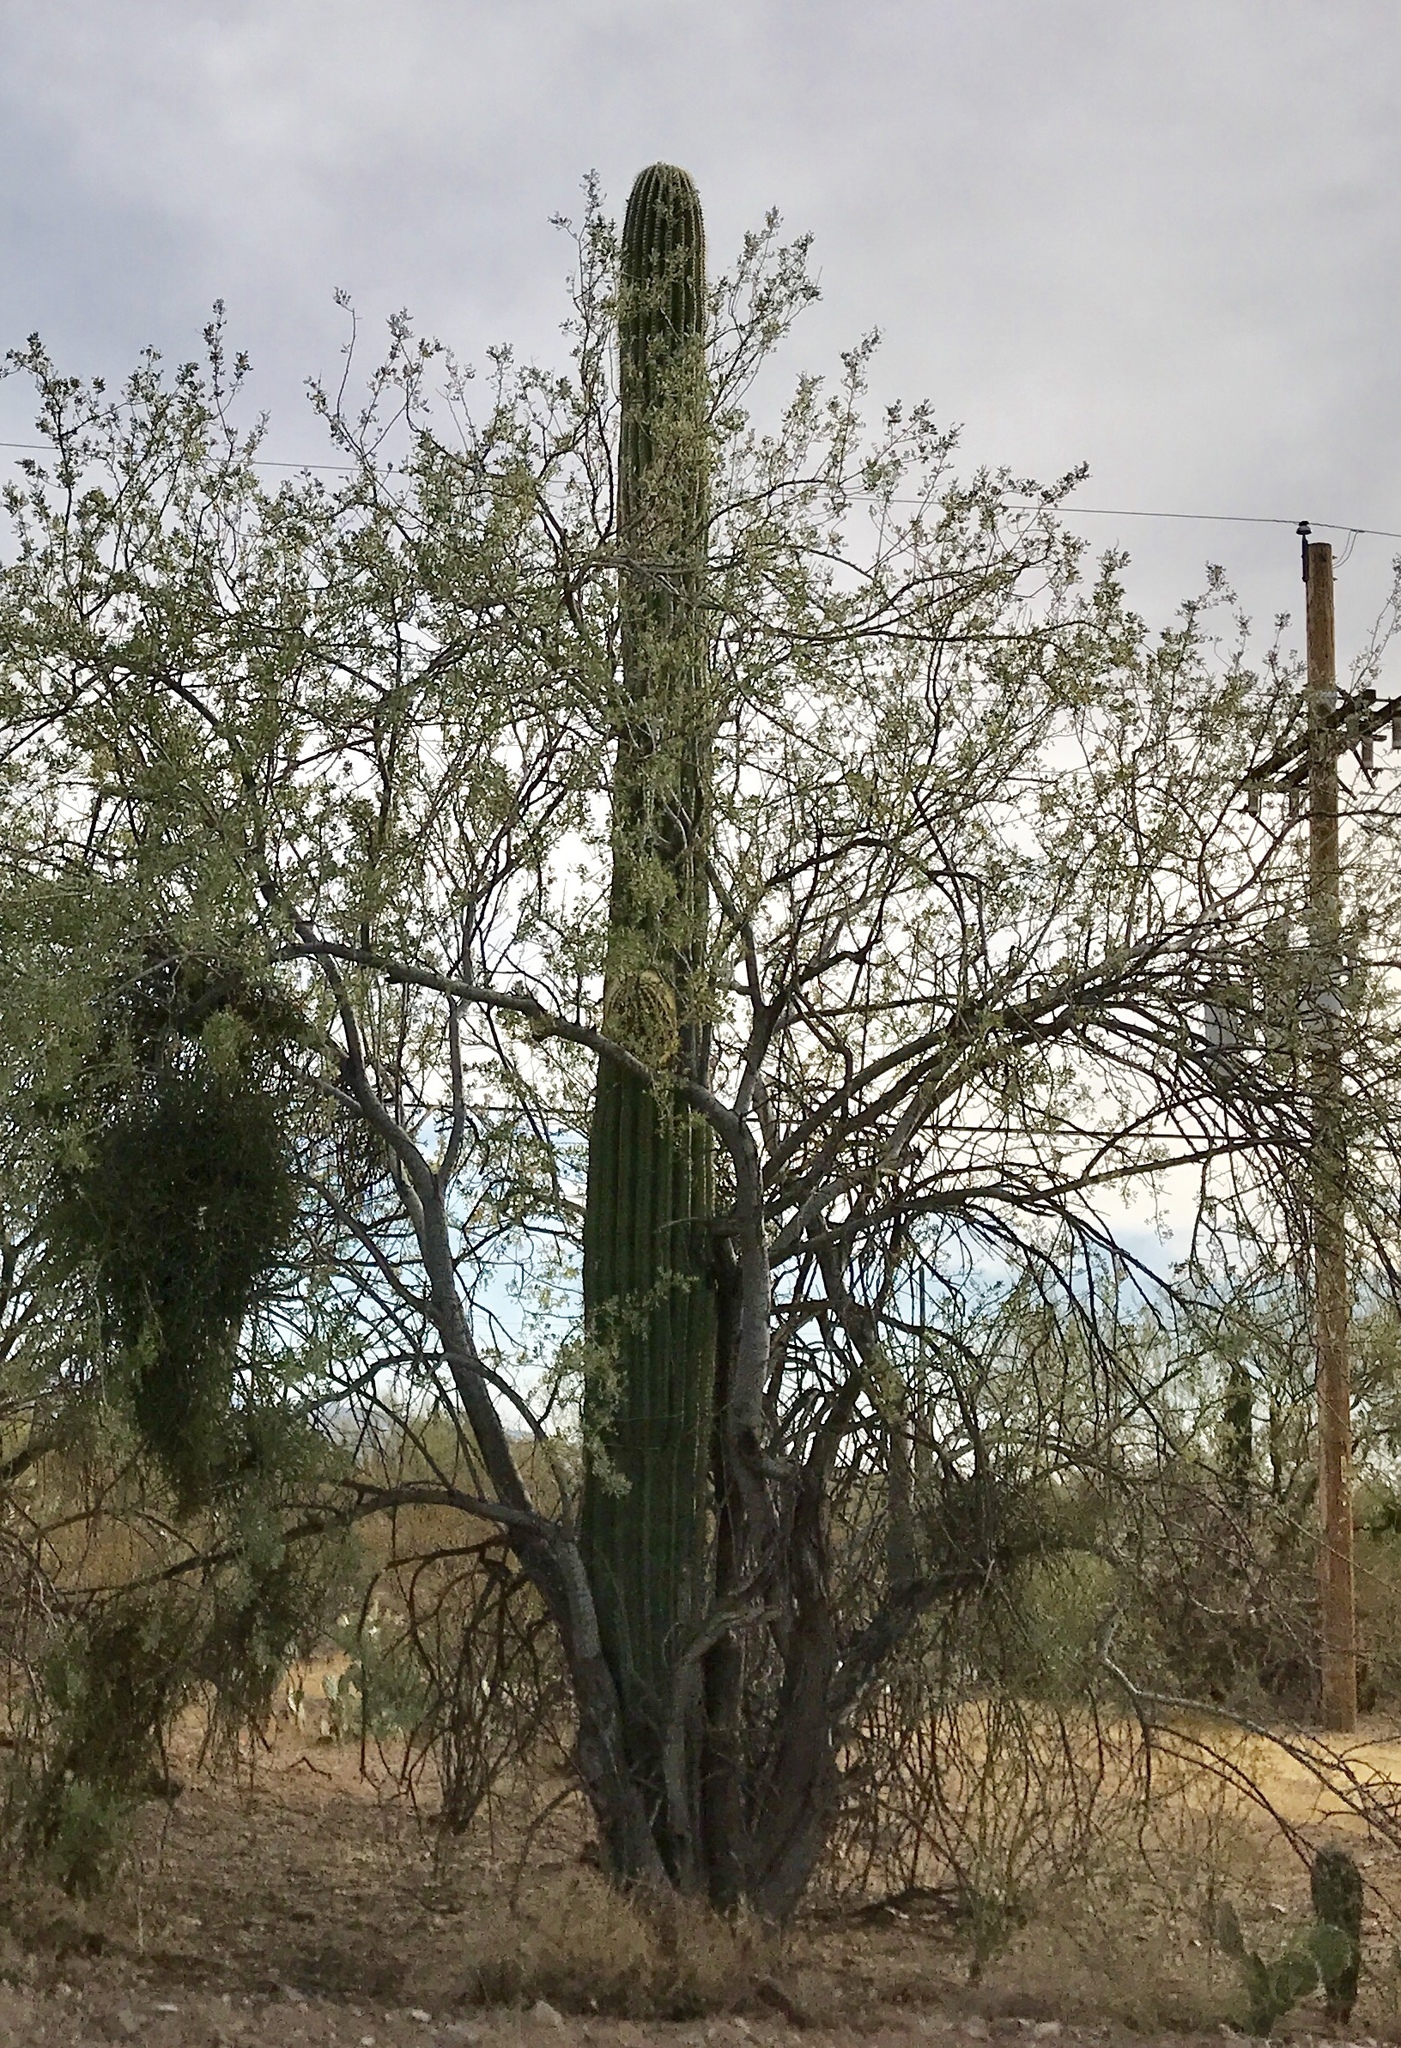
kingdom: Plantae
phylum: Tracheophyta
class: Magnoliopsida
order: Caryophyllales
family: Cactaceae
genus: Carnegiea
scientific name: Carnegiea gigantea
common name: Saguaro
